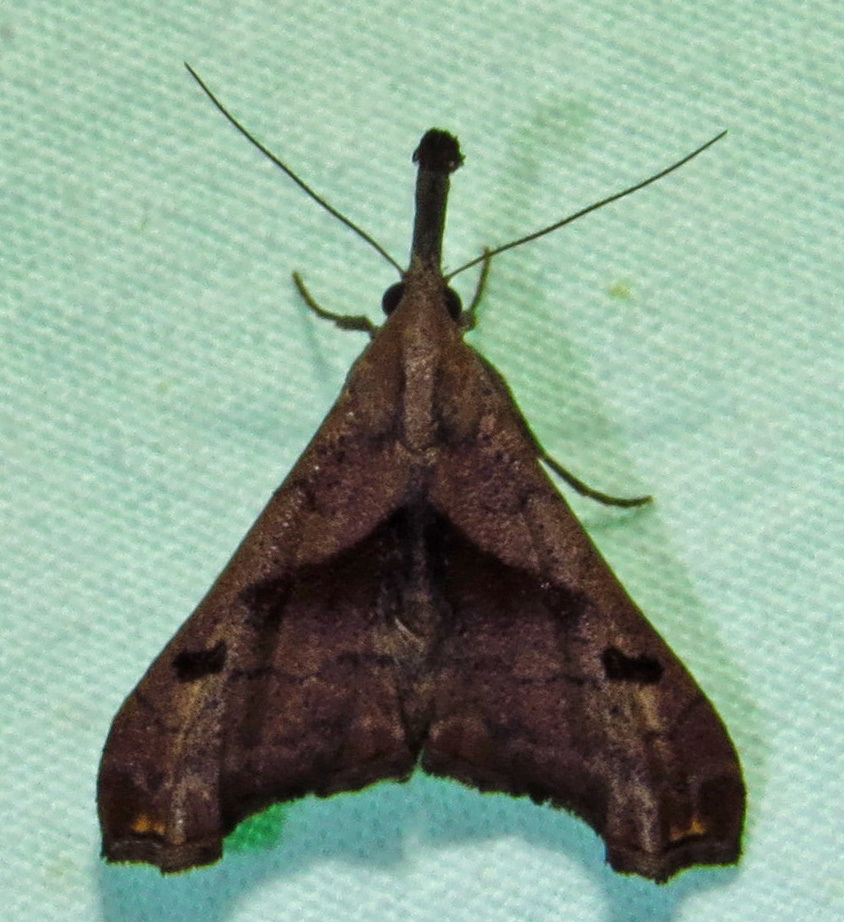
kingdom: Animalia
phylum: Arthropoda
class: Insecta
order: Lepidoptera
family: Erebidae
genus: Palthis
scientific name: Palthis angulalis
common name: Dark-spotted palthis moth
